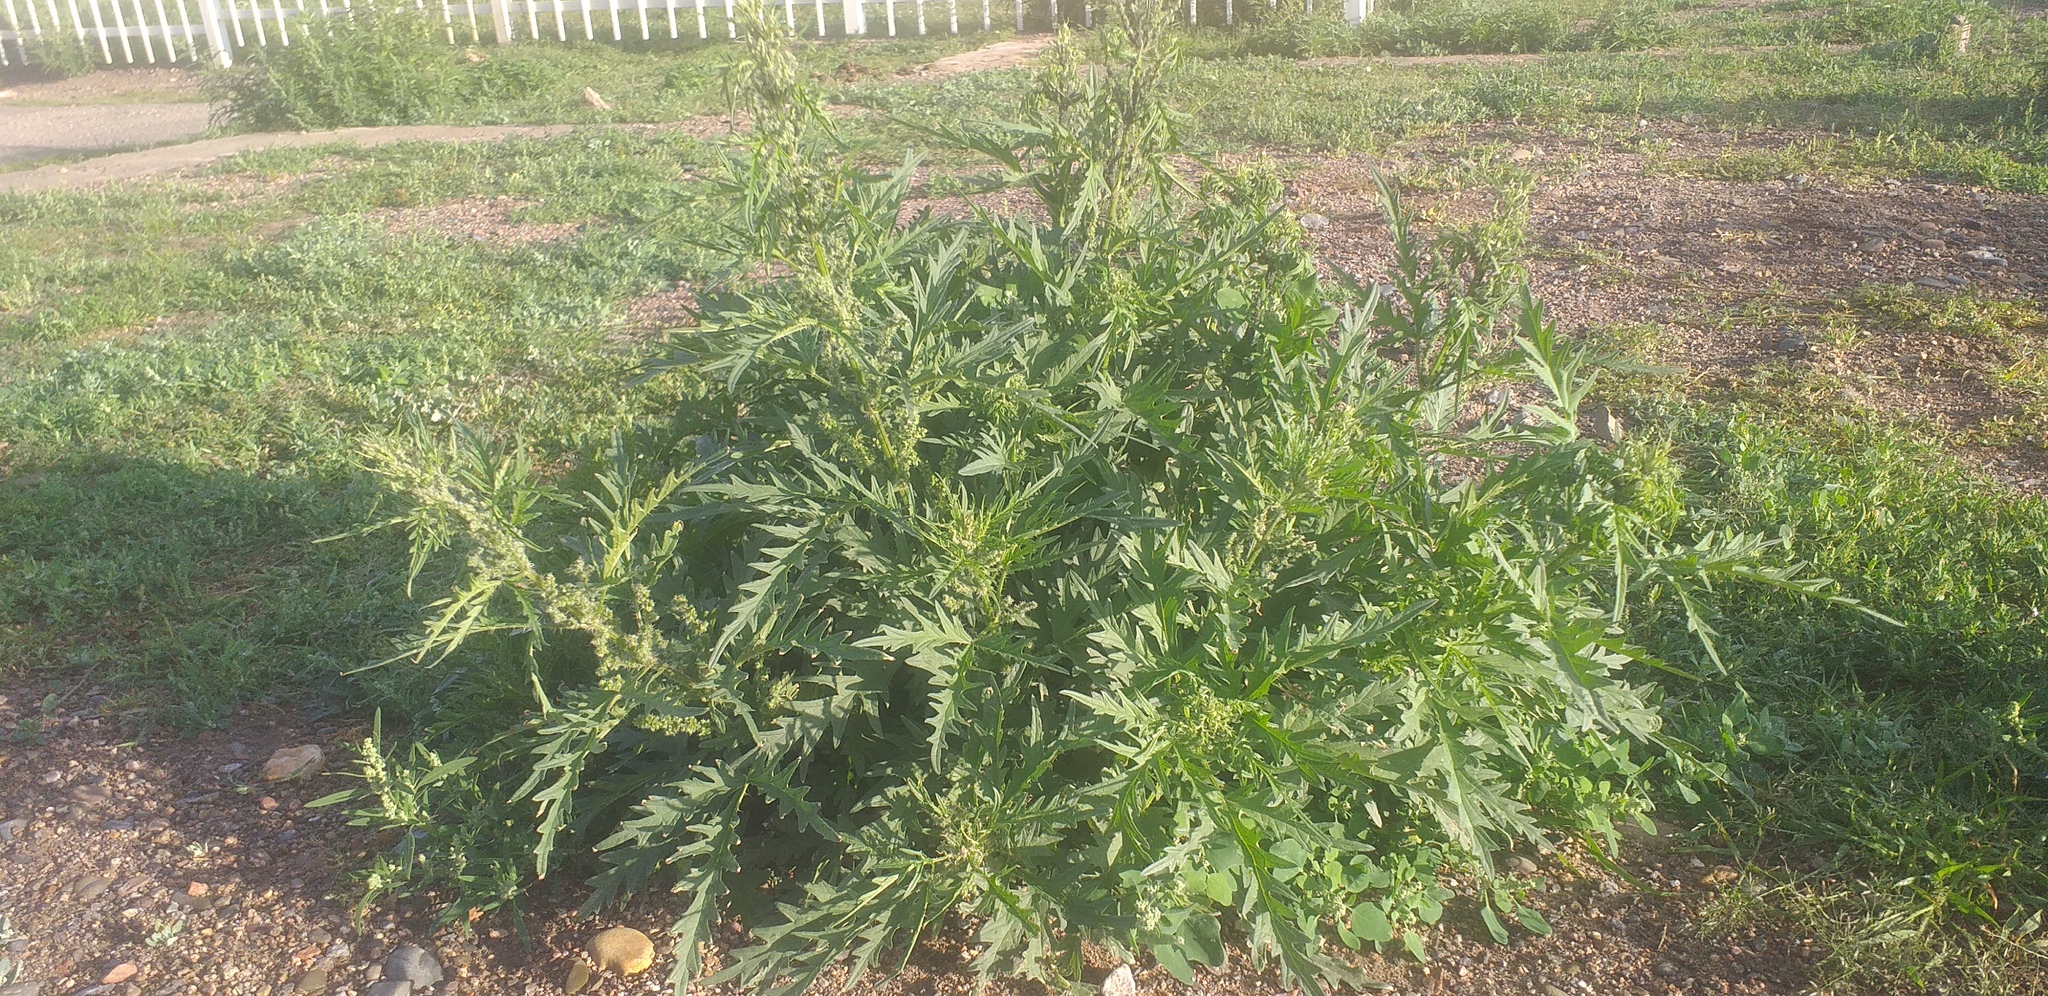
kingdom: Plantae
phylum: Tracheophyta
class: Magnoliopsida
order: Rosales
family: Urticaceae
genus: Urtica
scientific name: Urtica cannabina
